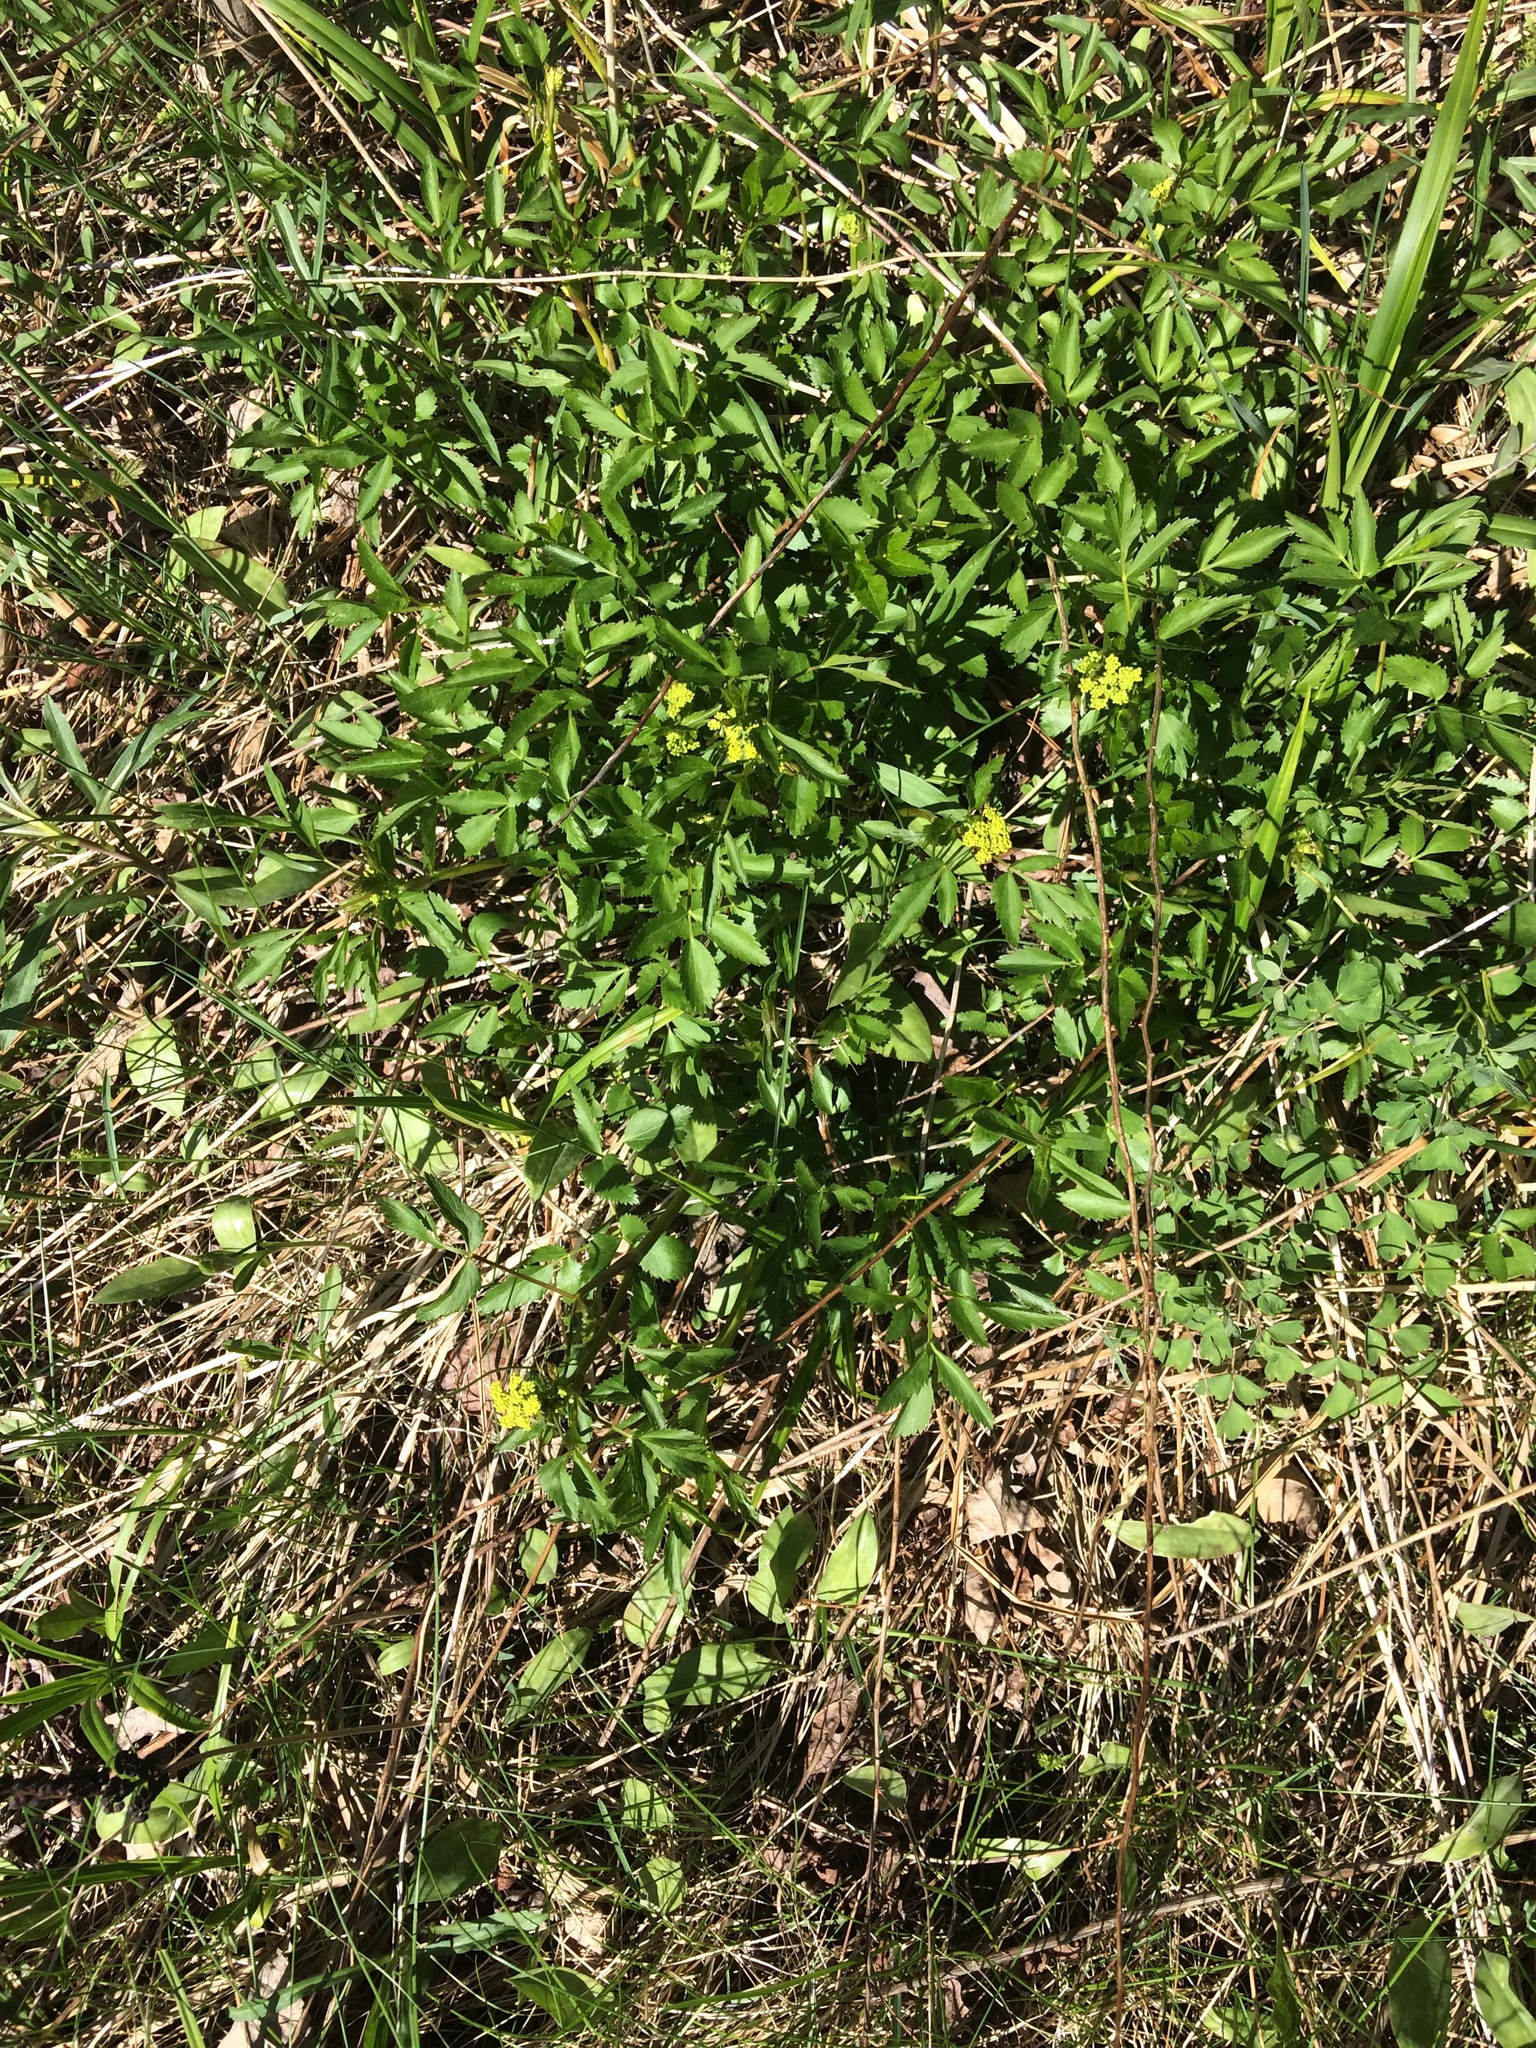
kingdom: Plantae
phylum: Tracheophyta
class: Magnoliopsida
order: Apiales
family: Apiaceae
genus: Zizia
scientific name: Zizia aurea
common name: Golden alexanders
